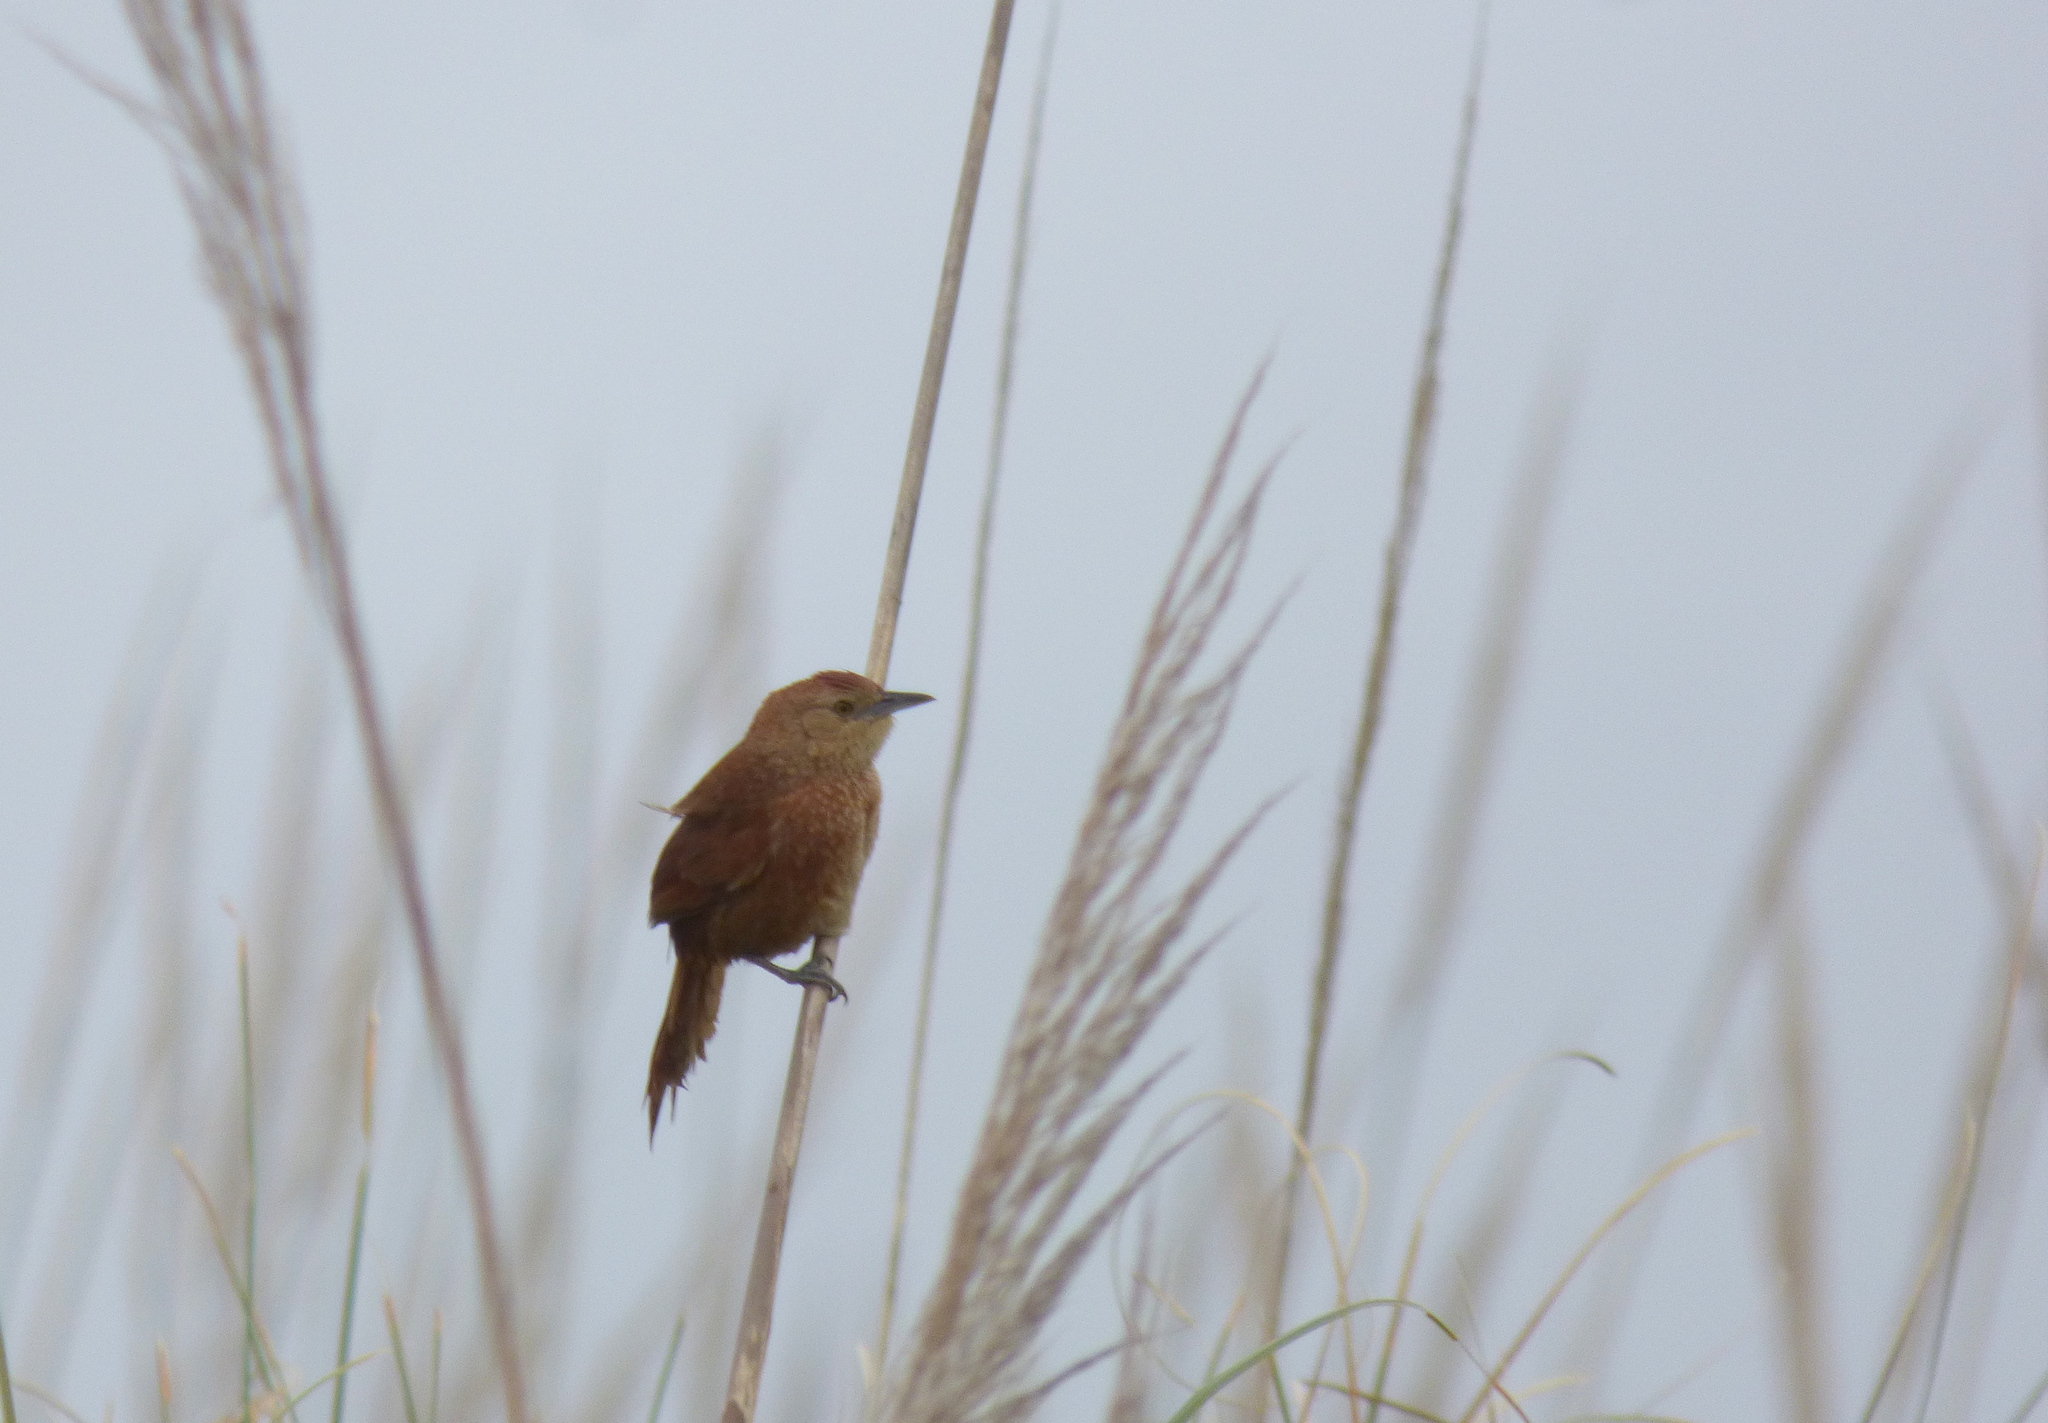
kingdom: Animalia
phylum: Chordata
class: Aves
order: Passeriformes
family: Furnariidae
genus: Phacellodomus
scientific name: Phacellodomus striaticollis
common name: Freckle-breasted thornbird
